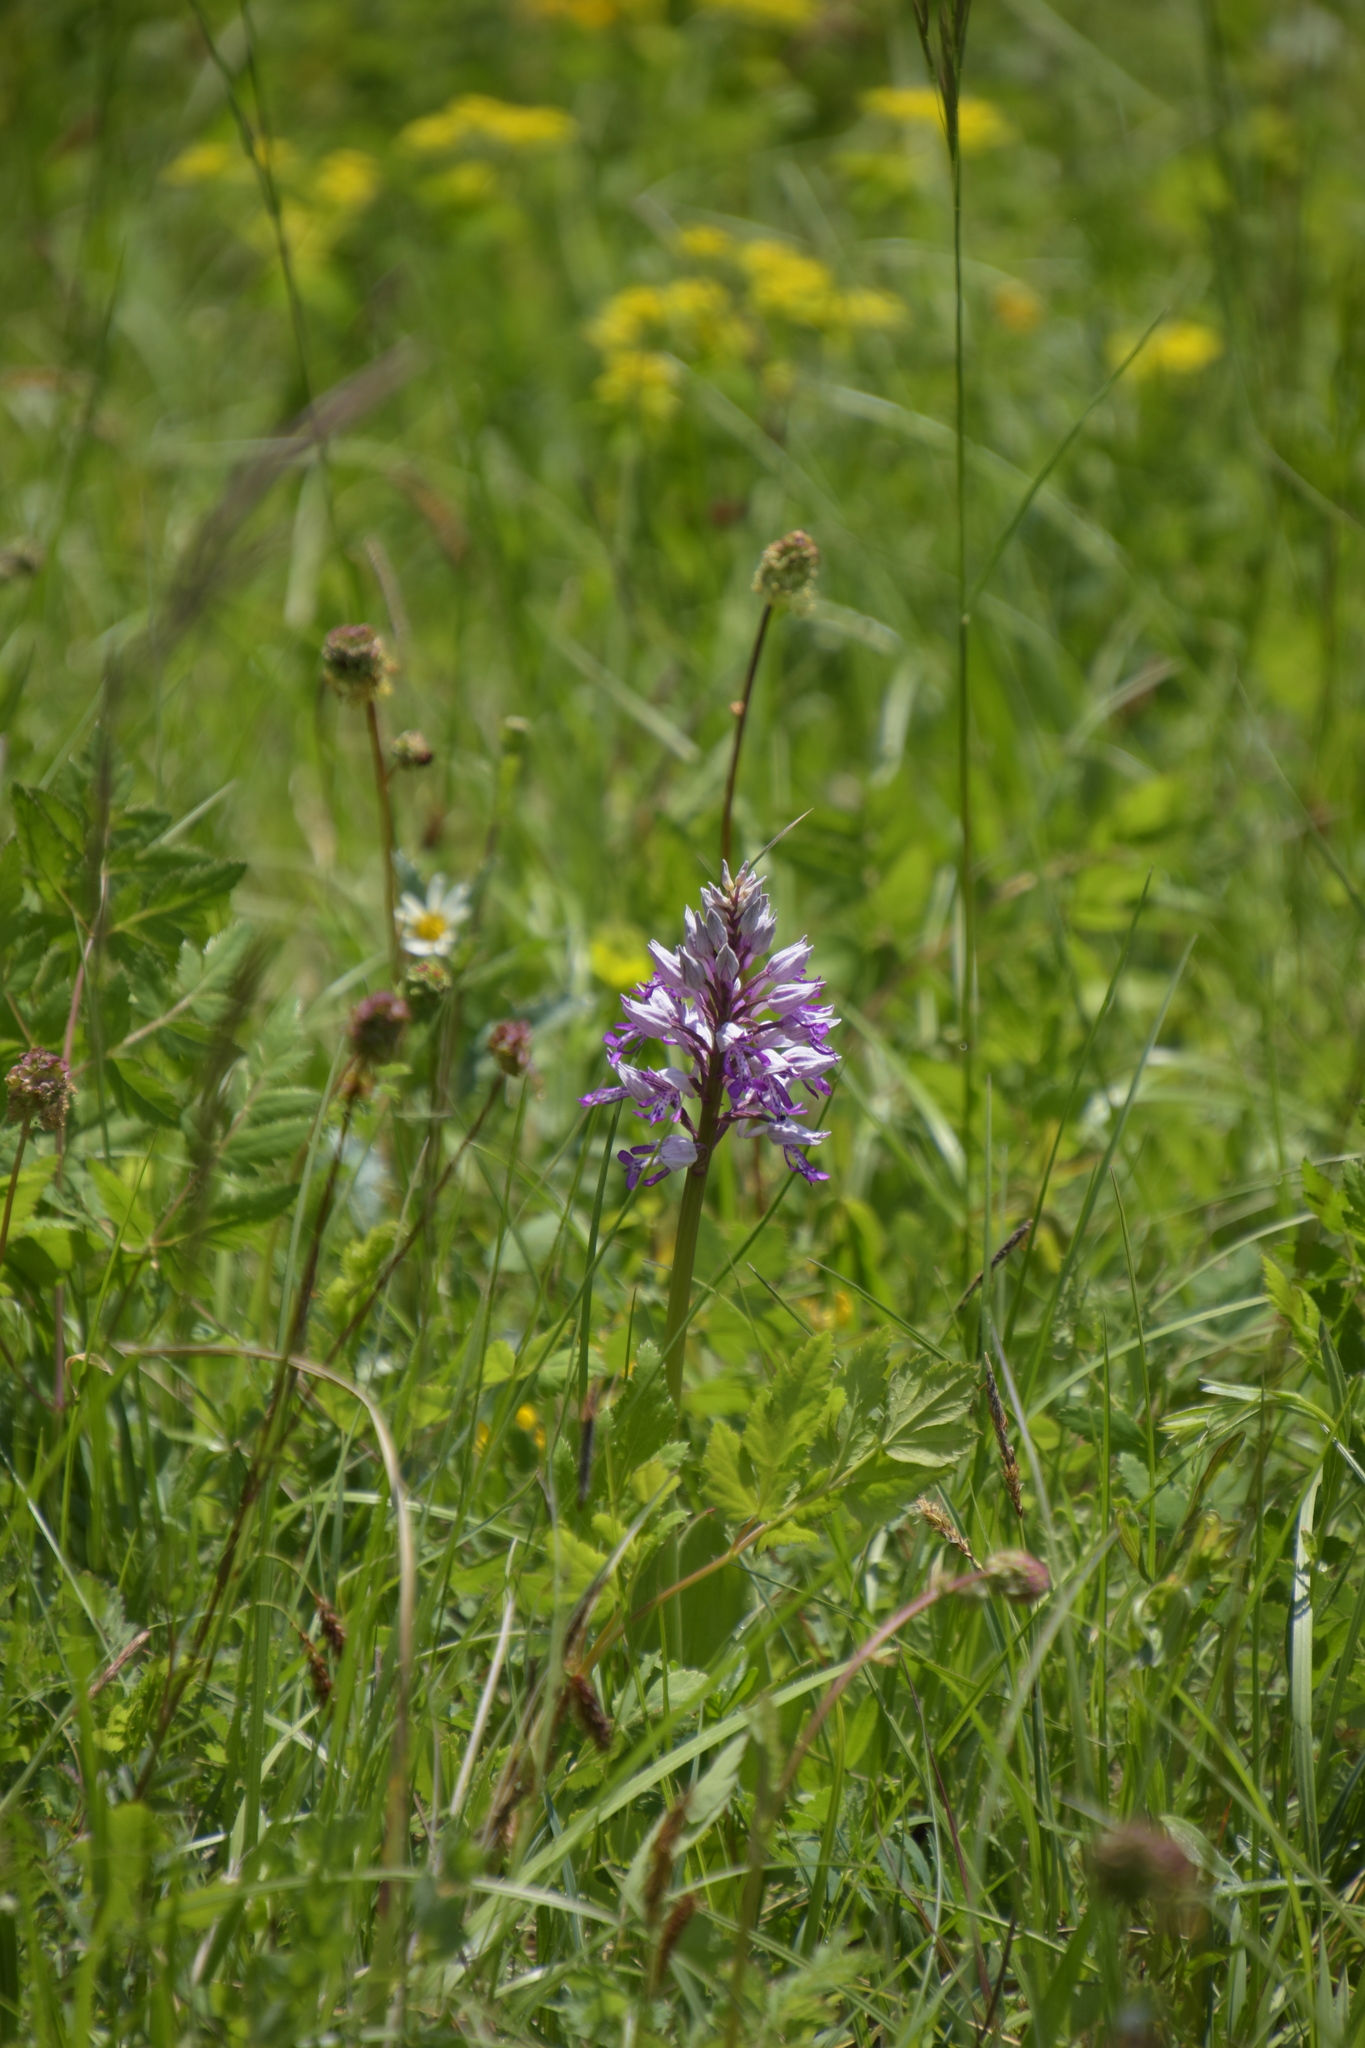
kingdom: Plantae
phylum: Tracheophyta
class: Liliopsida
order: Asparagales
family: Orchidaceae
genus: Orchis
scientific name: Orchis militaris
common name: Military orchid
